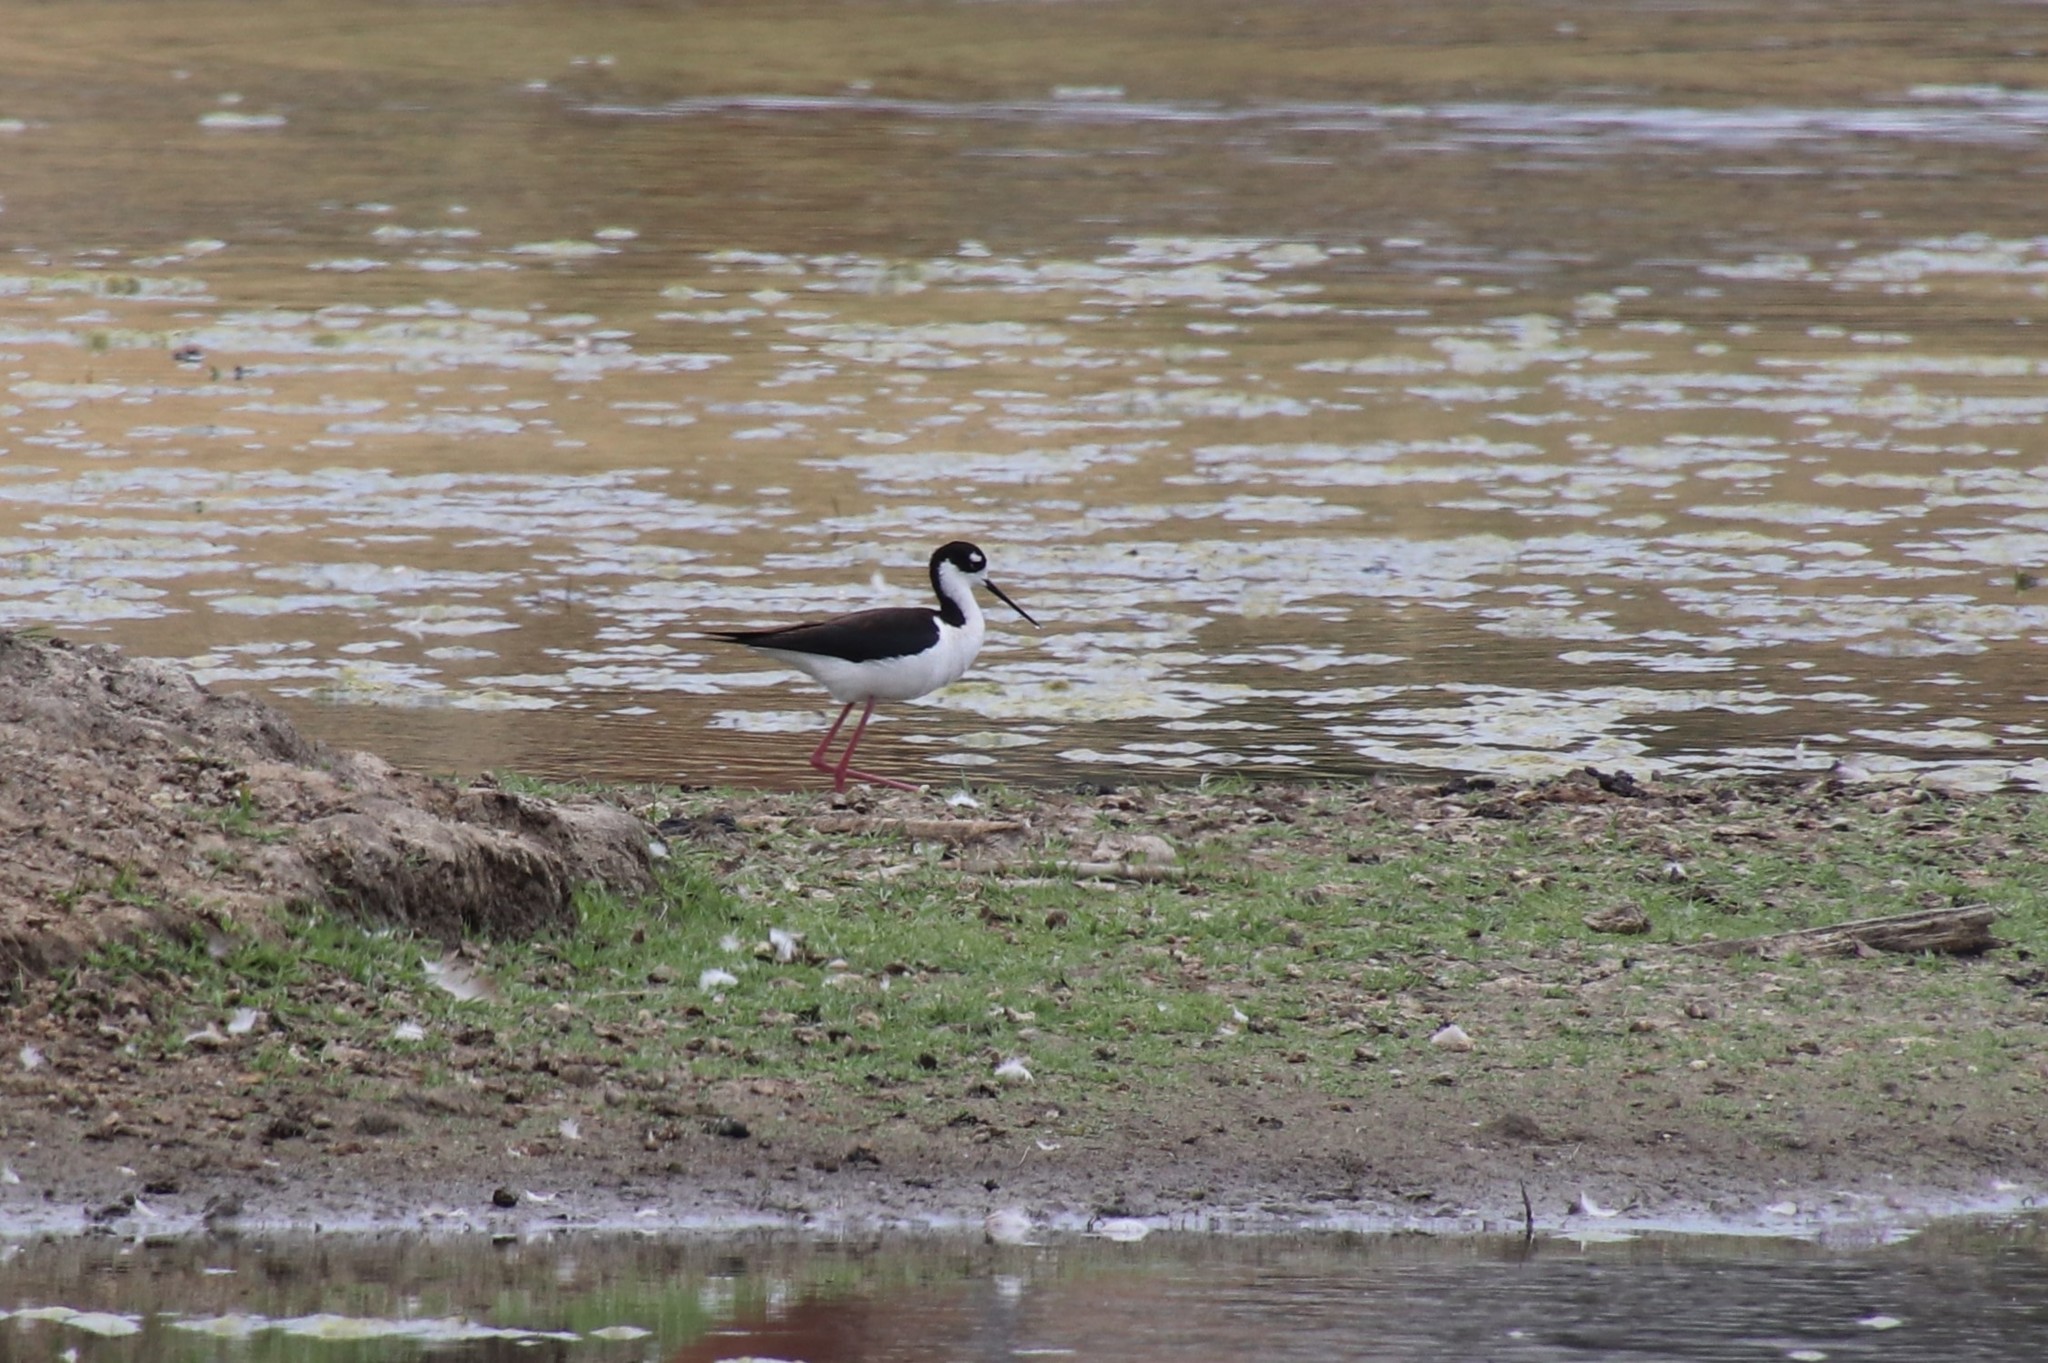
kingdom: Animalia
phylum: Chordata
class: Aves
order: Charadriiformes
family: Recurvirostridae
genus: Himantopus
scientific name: Himantopus mexicanus
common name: Black-necked stilt
